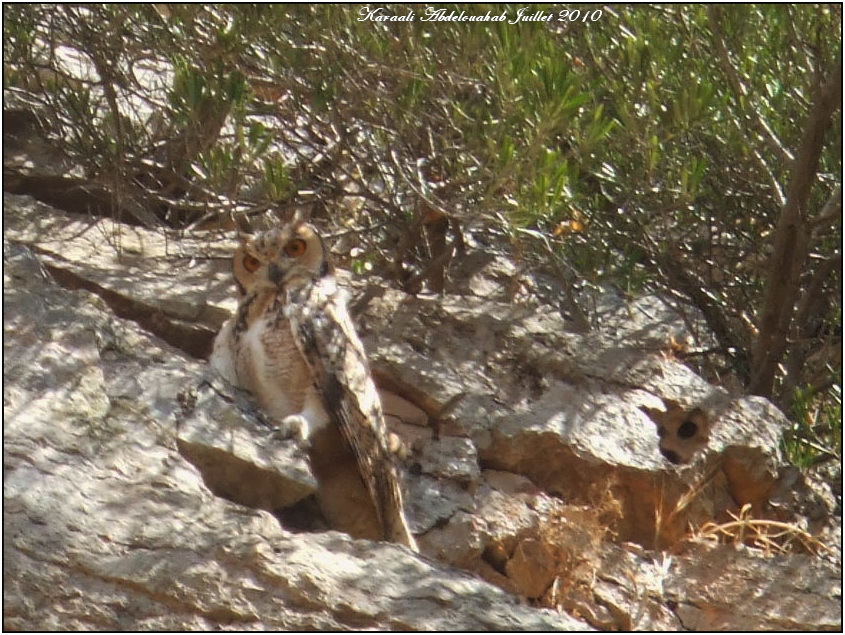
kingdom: Animalia
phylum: Chordata
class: Aves
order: Strigiformes
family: Strigidae
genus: Bubo
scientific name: Bubo ascalaphus
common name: Pharaoh eagle-owl
